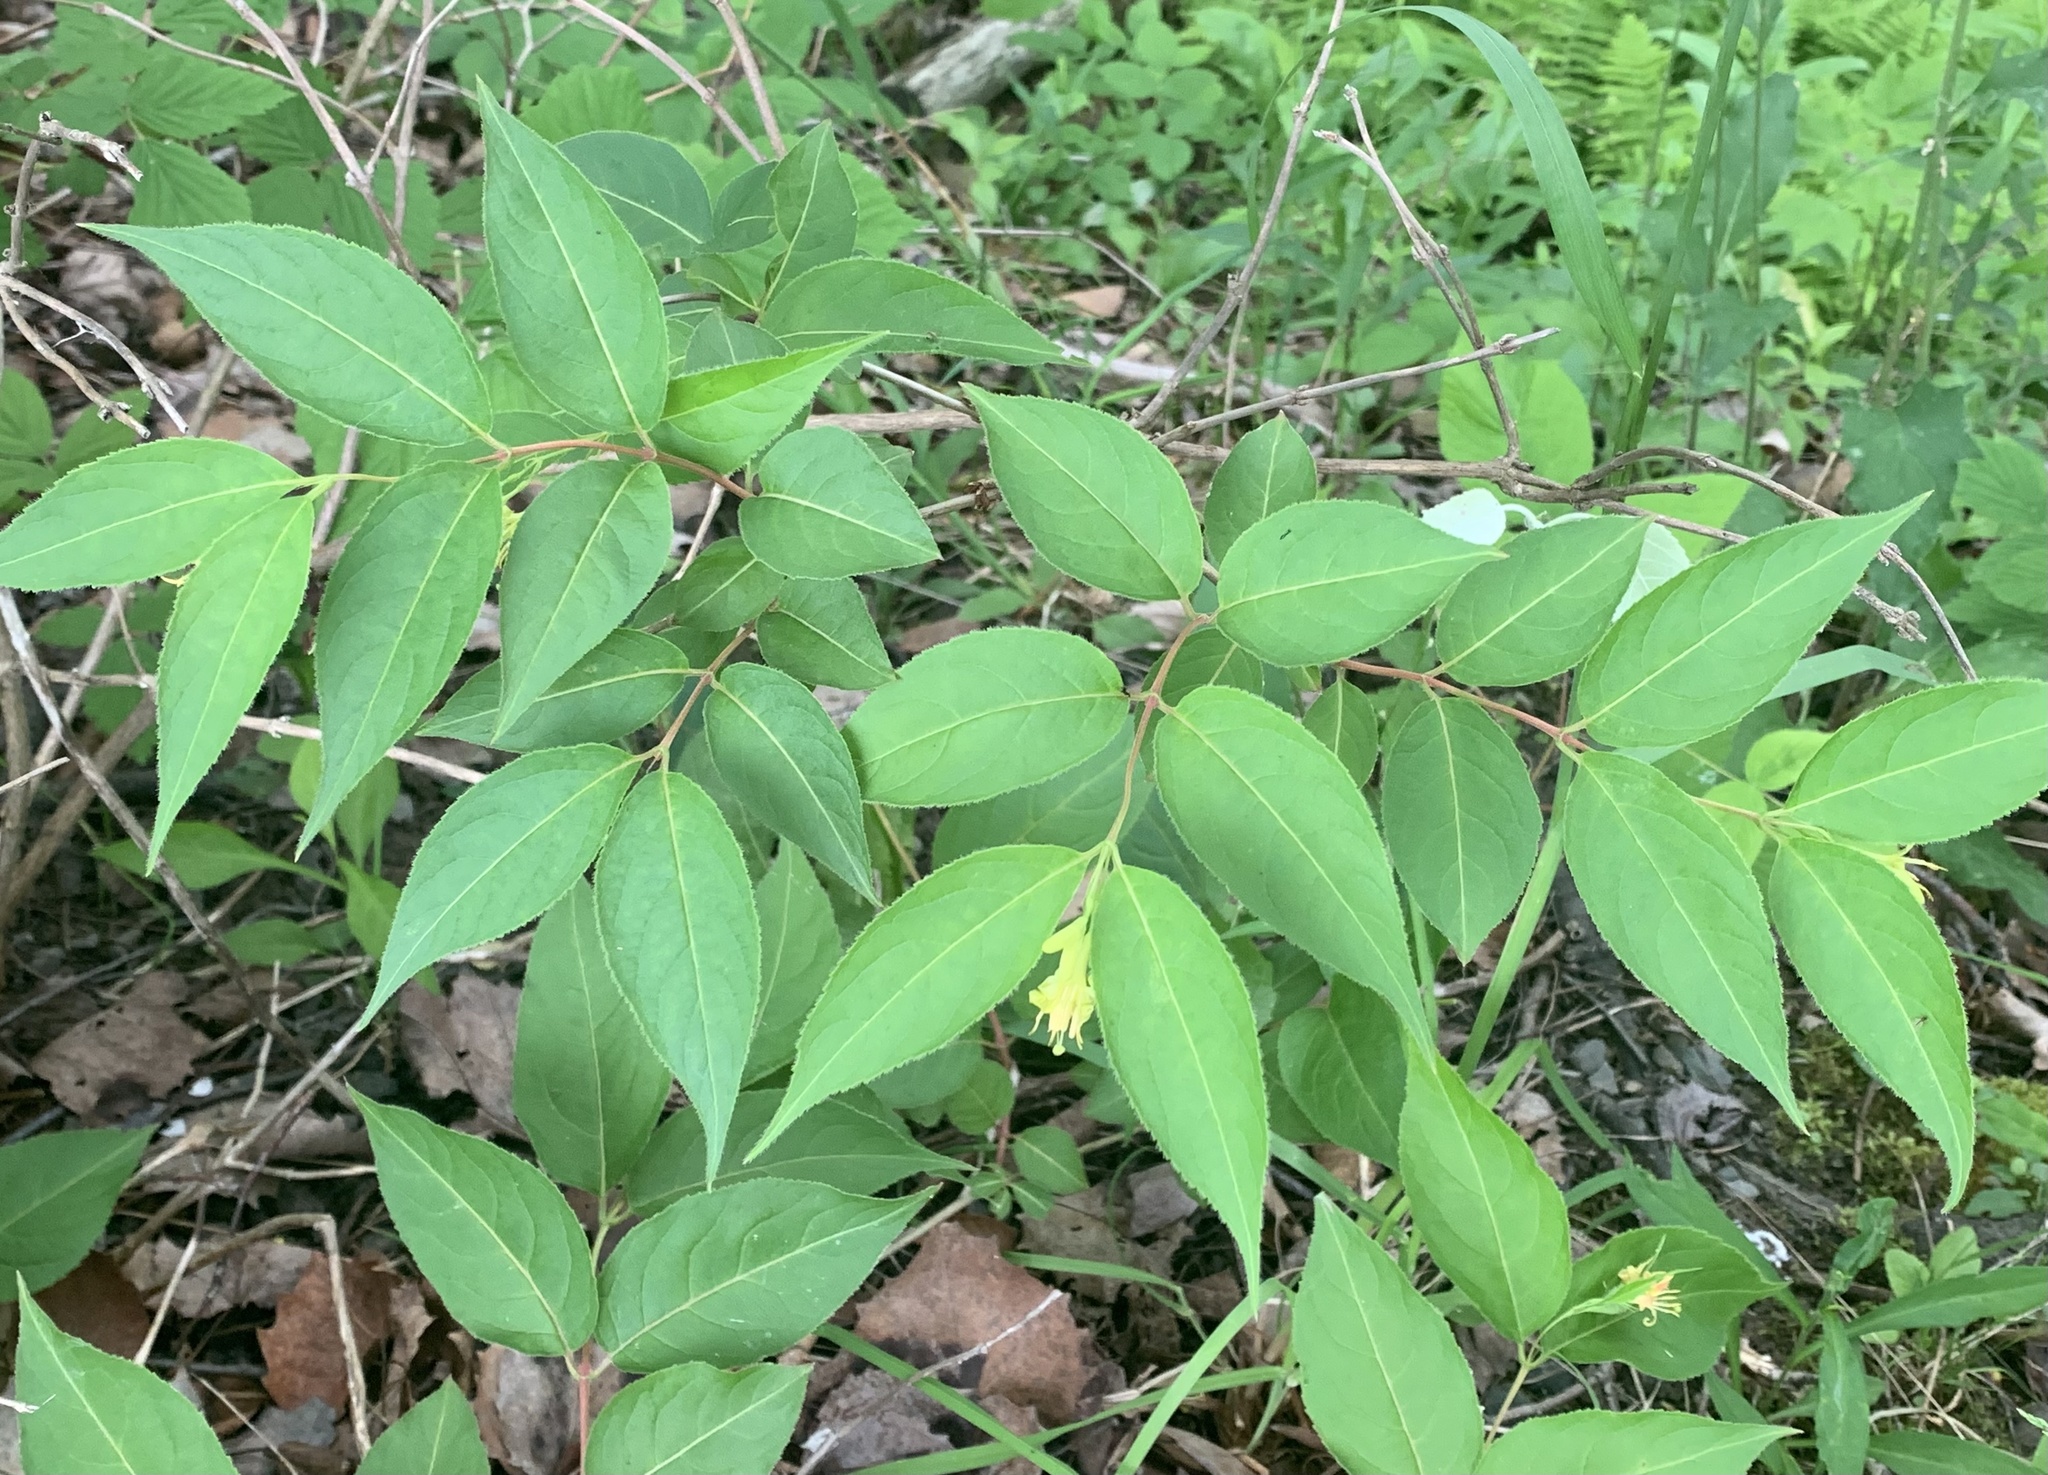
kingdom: Plantae
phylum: Tracheophyta
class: Magnoliopsida
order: Dipsacales
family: Caprifoliaceae
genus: Diervilla
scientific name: Diervilla lonicera
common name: Bush-honeysuckle
